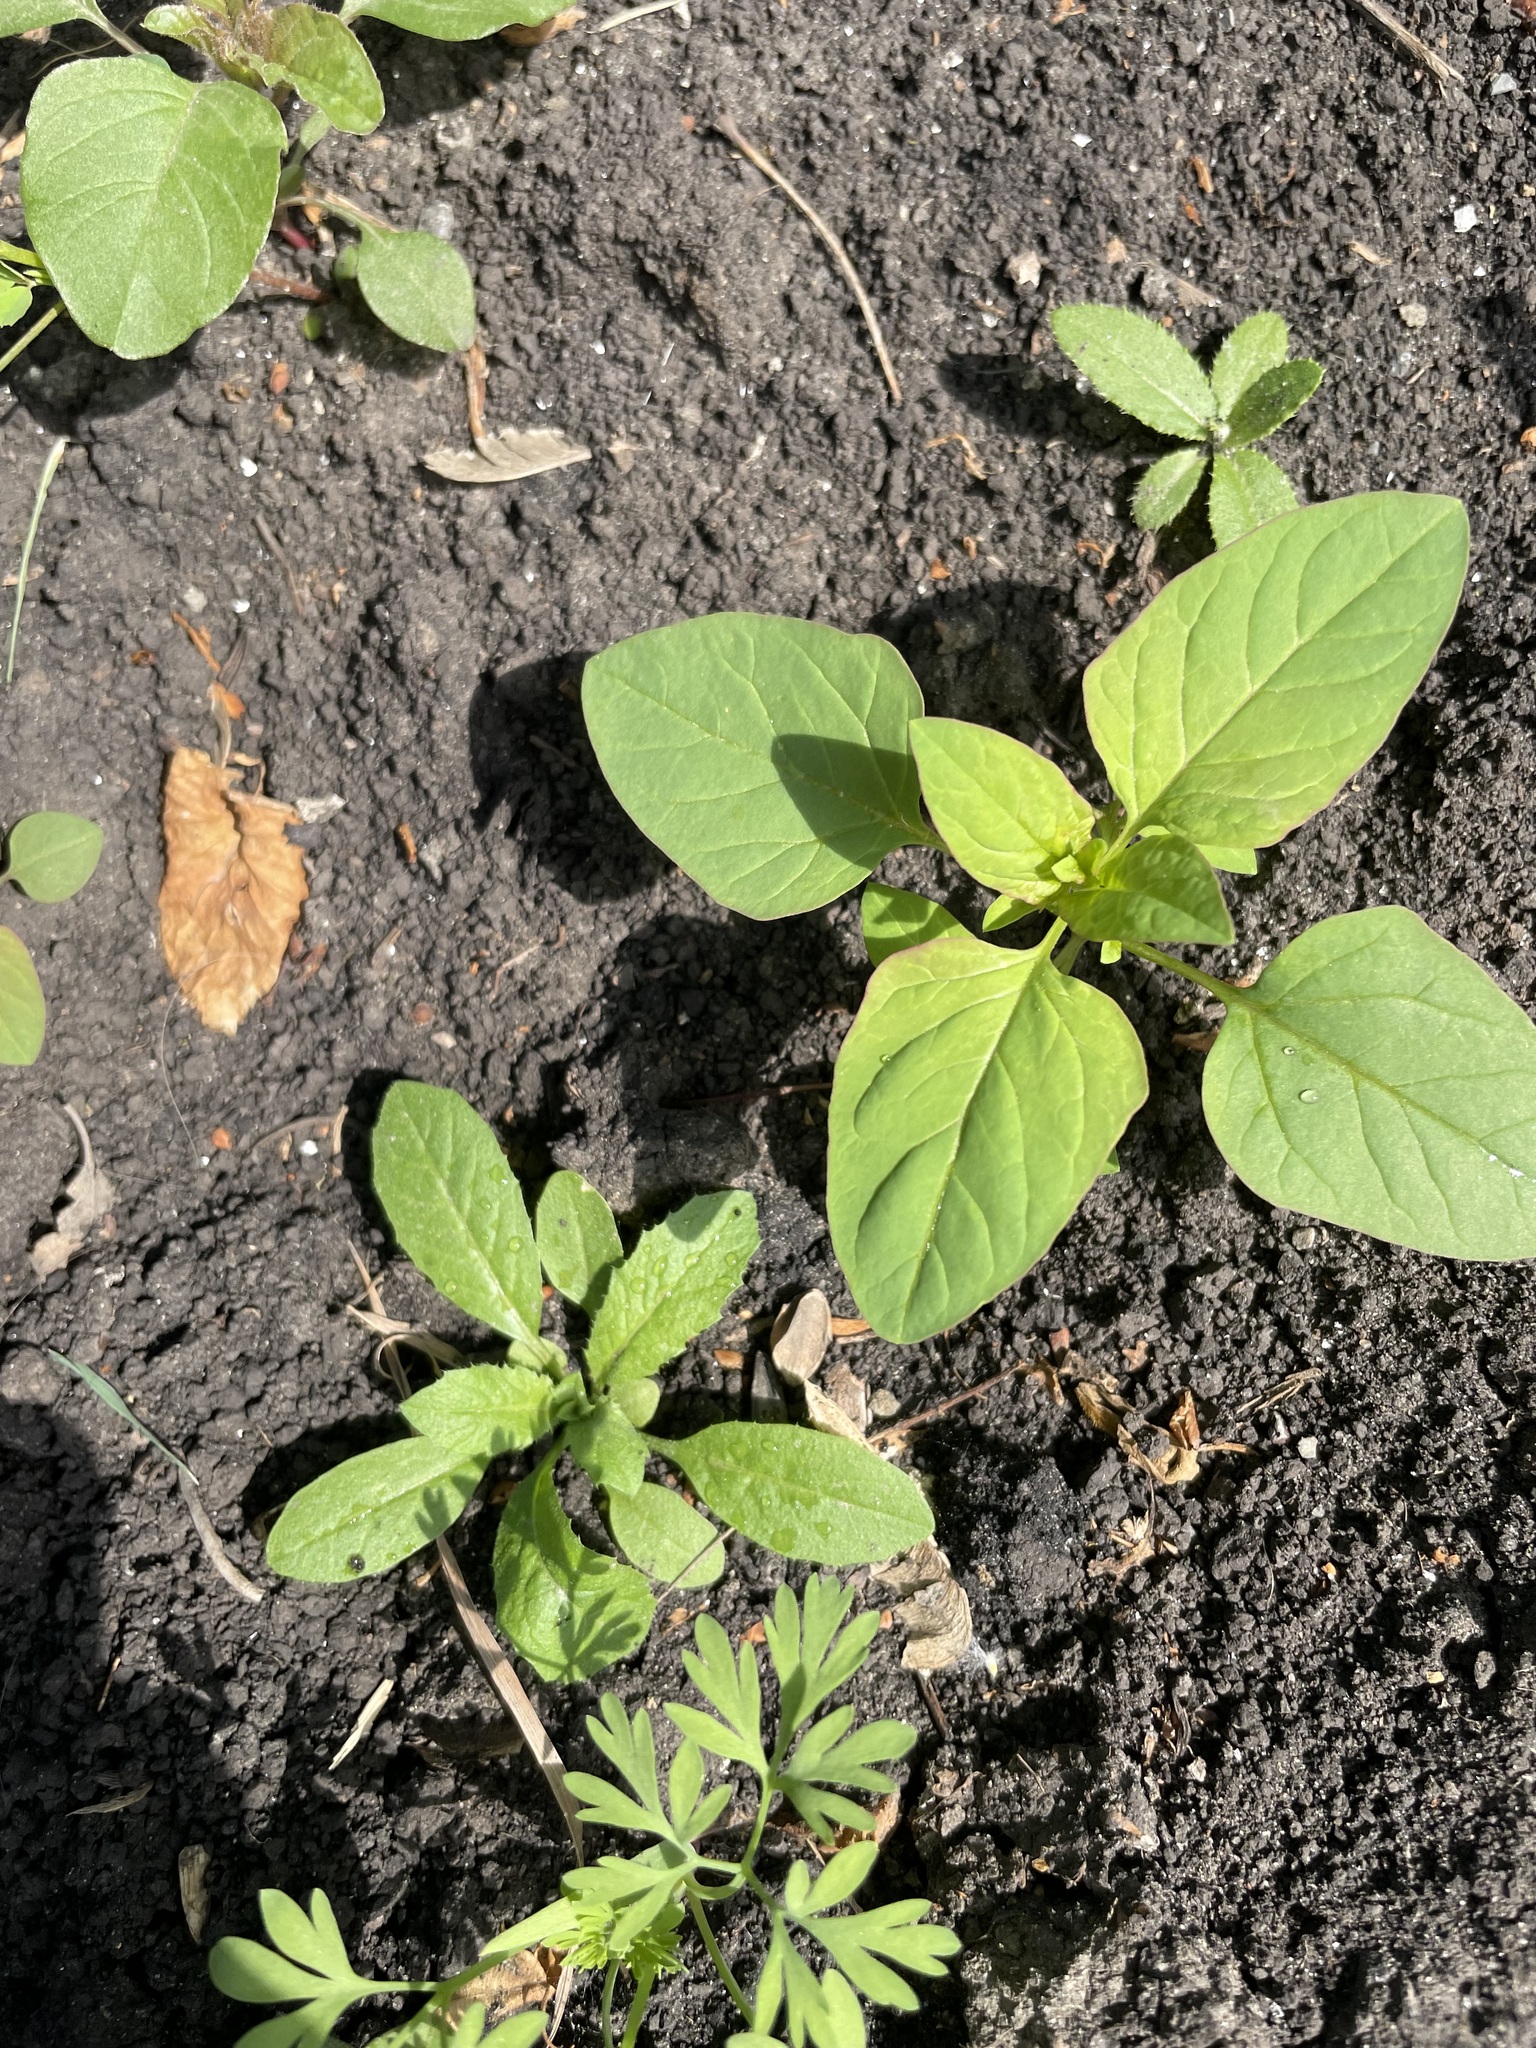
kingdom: Plantae
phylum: Tracheophyta
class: Magnoliopsida
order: Caryophyllales
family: Amaranthaceae
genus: Lipandra
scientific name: Lipandra polysperma
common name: Many-seed goosefoot
